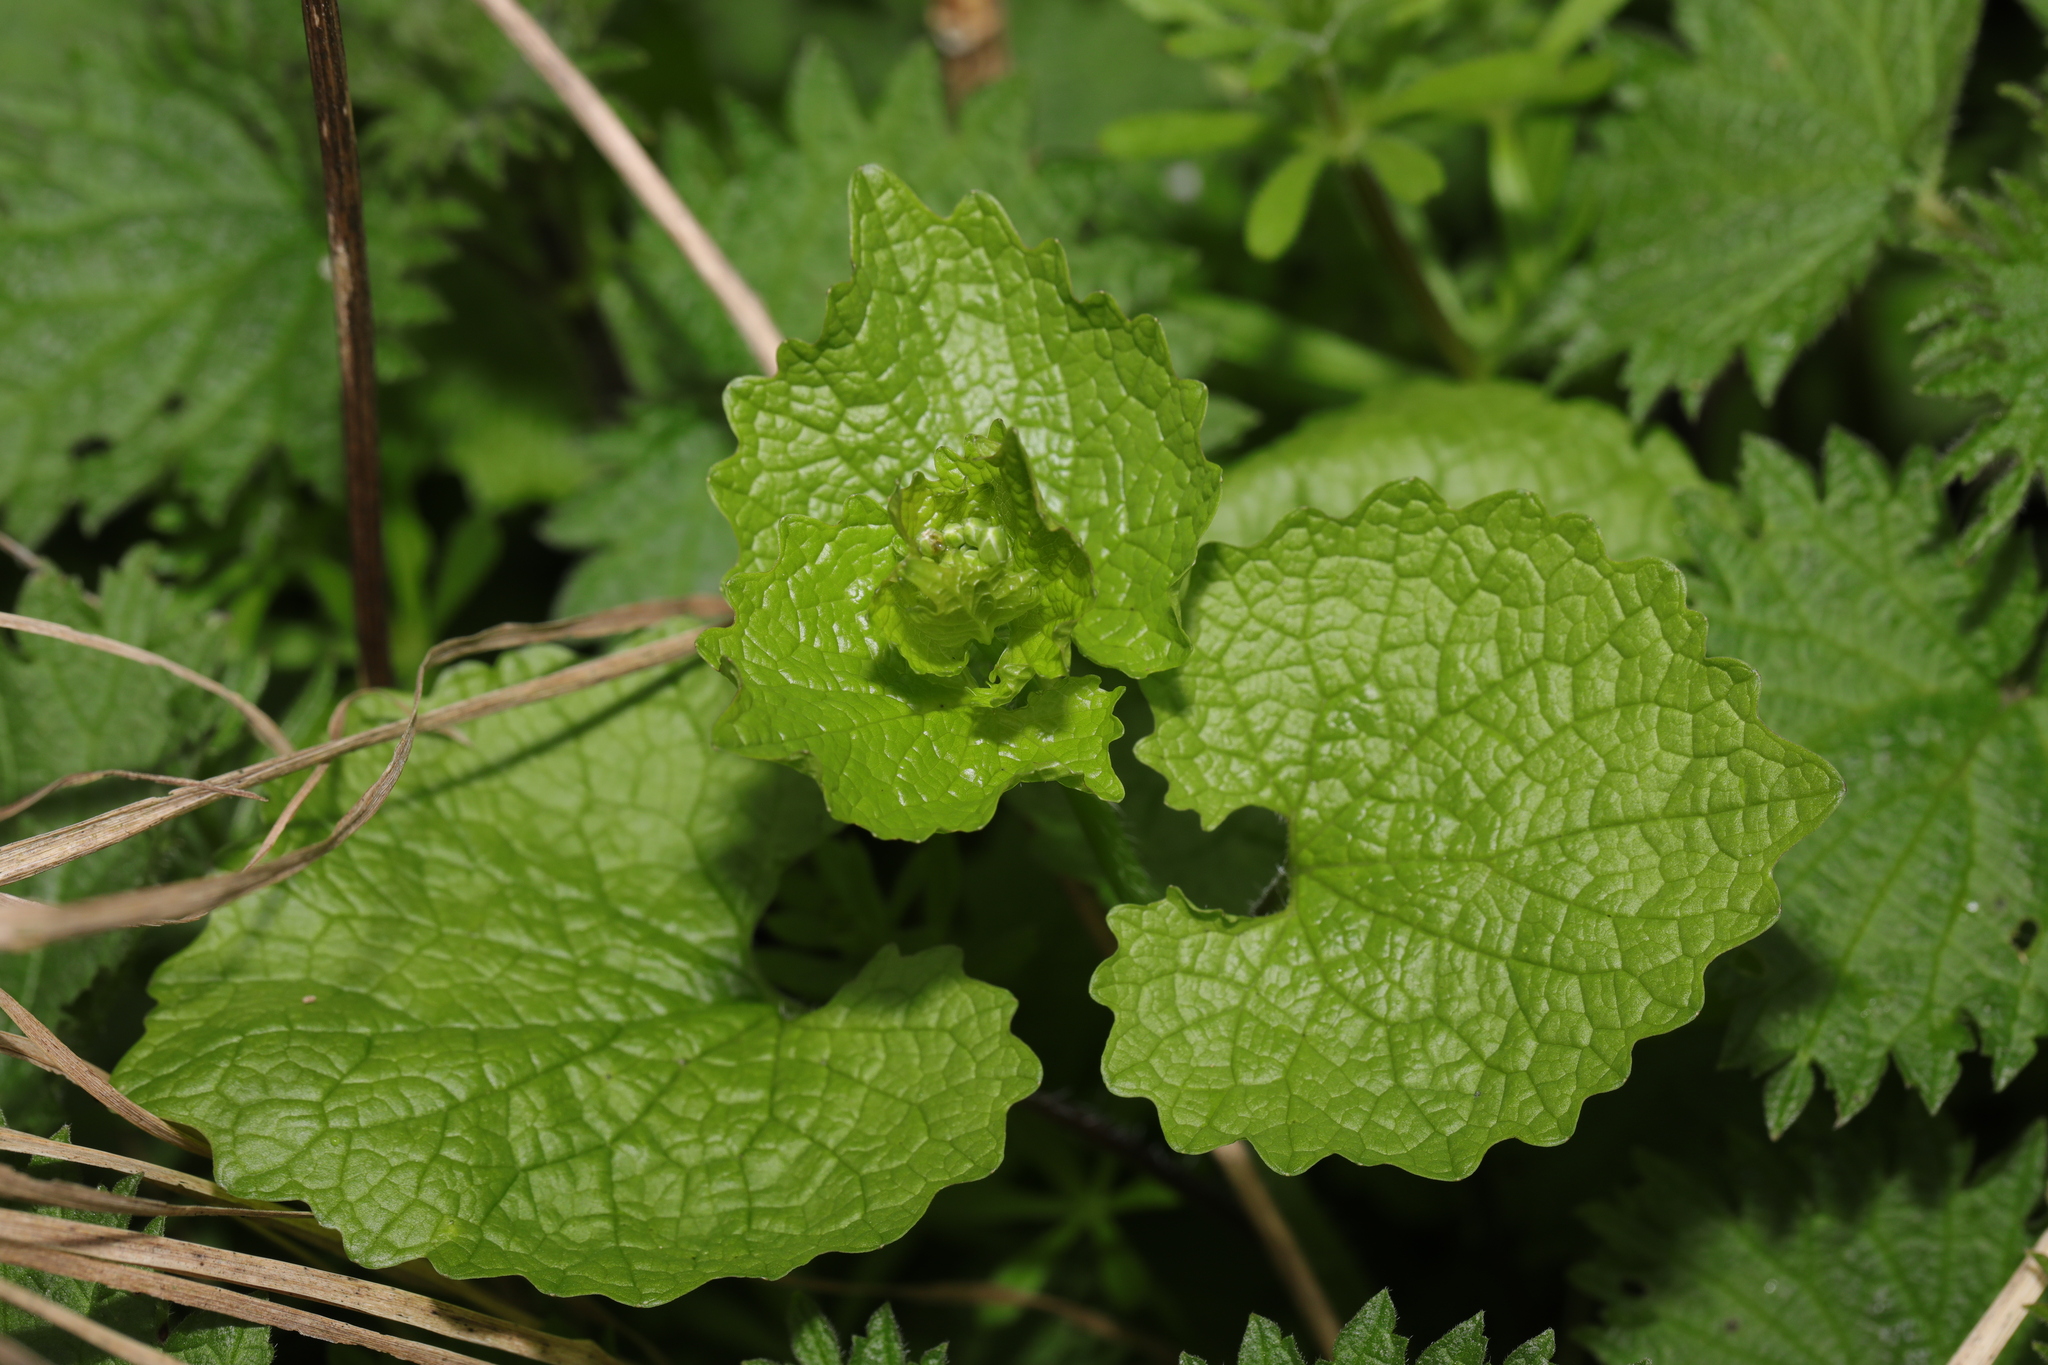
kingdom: Plantae
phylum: Tracheophyta
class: Magnoliopsida
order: Brassicales
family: Brassicaceae
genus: Alliaria
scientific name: Alliaria petiolata
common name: Garlic mustard
